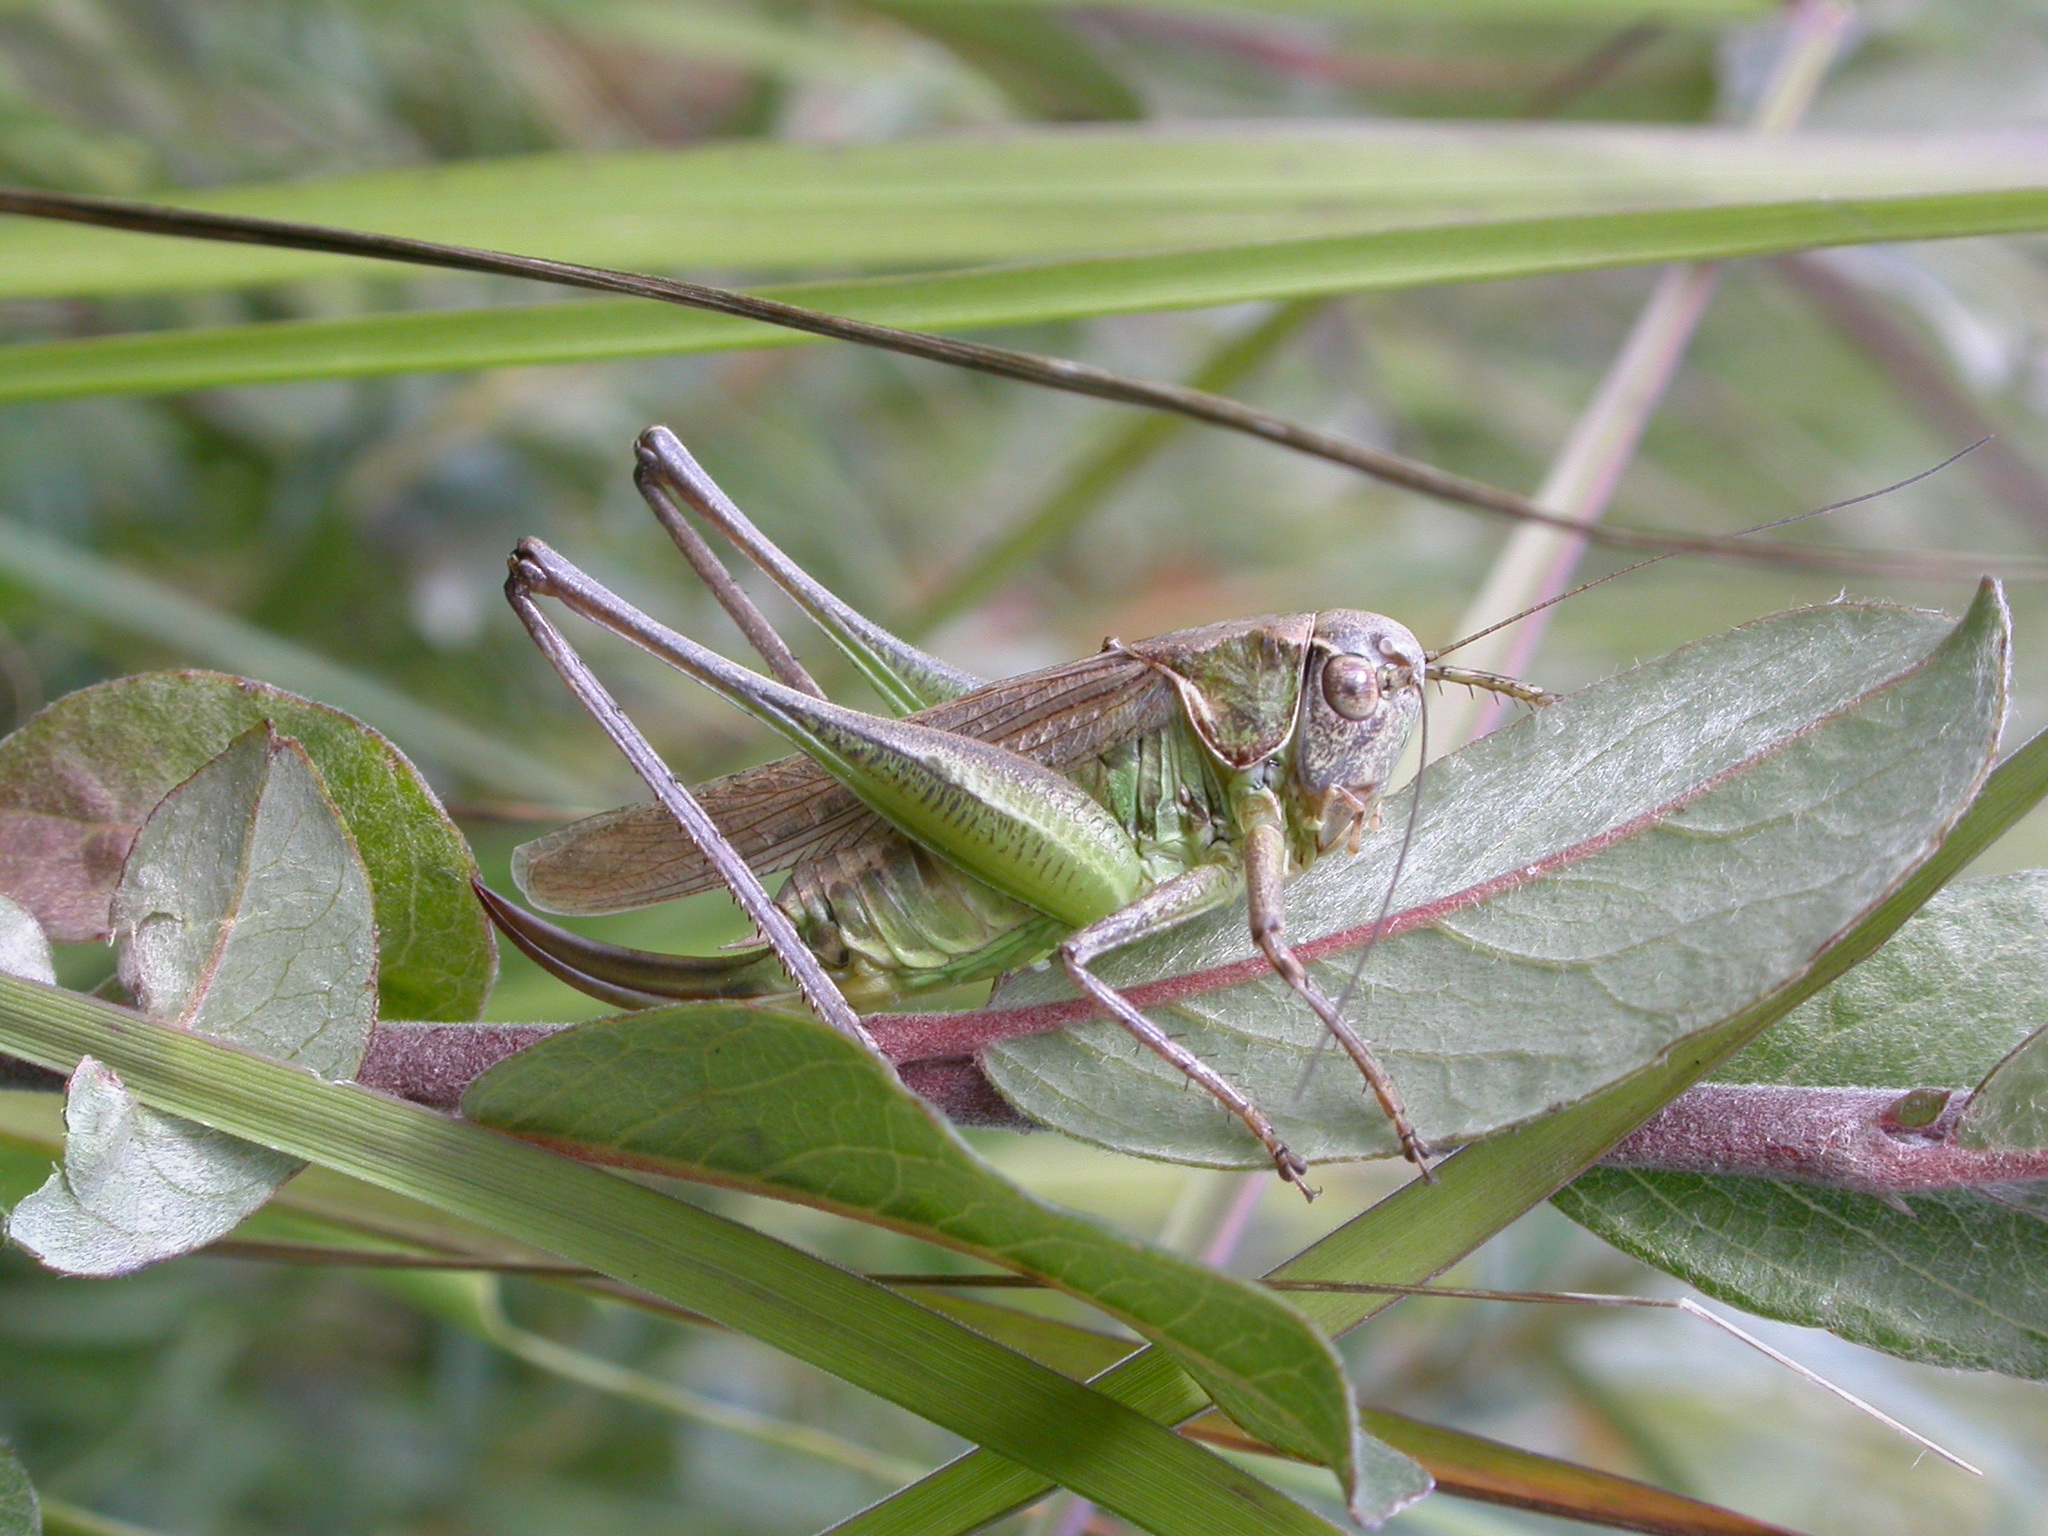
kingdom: Animalia
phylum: Arthropoda
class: Insecta
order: Orthoptera
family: Tettigoniidae
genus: Platycleis
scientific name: Platycleis albopunctata
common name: Grey bush-cricket
